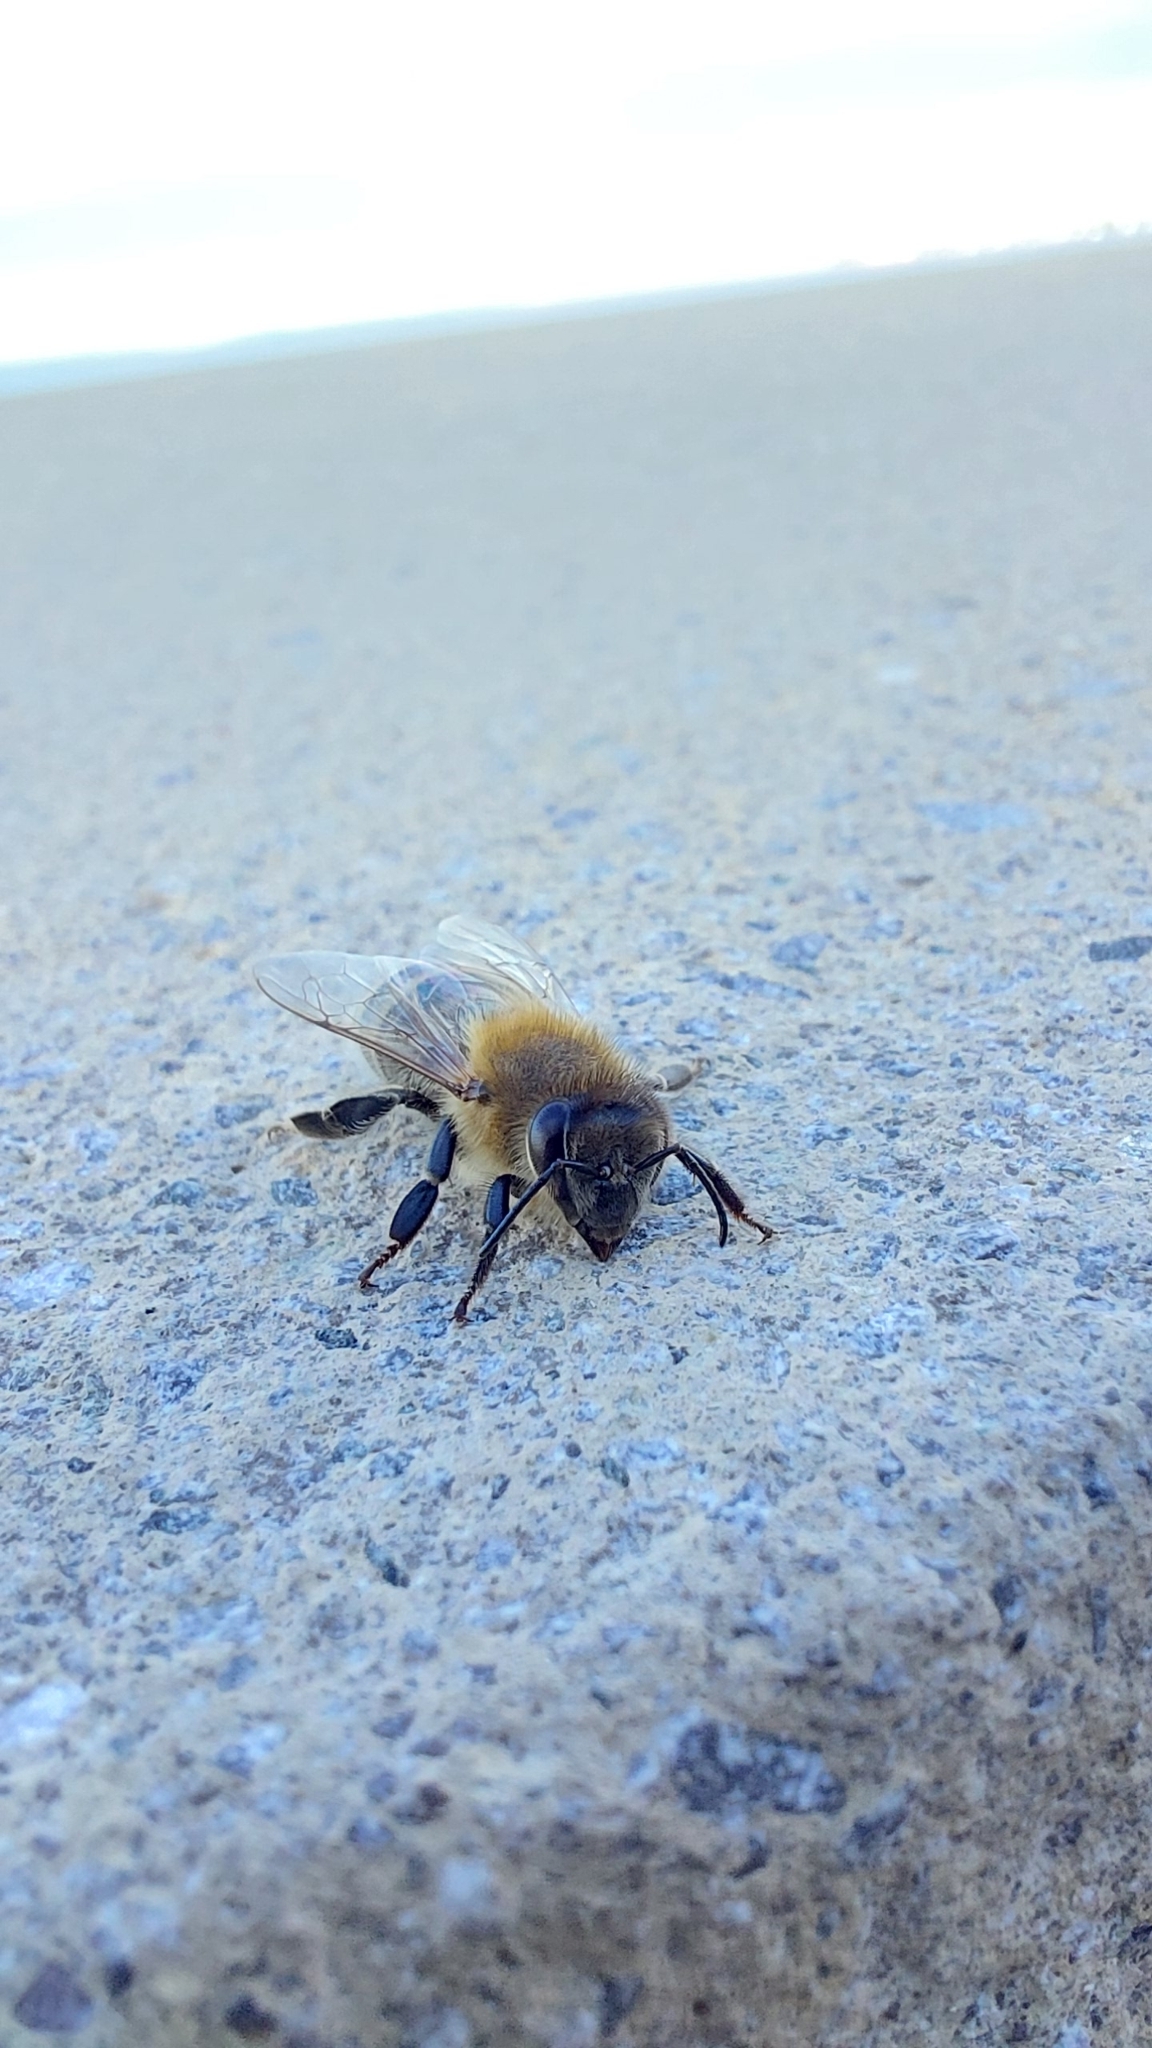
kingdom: Animalia
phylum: Arthropoda
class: Insecta
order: Hymenoptera
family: Apidae
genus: Apis
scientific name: Apis mellifera
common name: Honey bee
